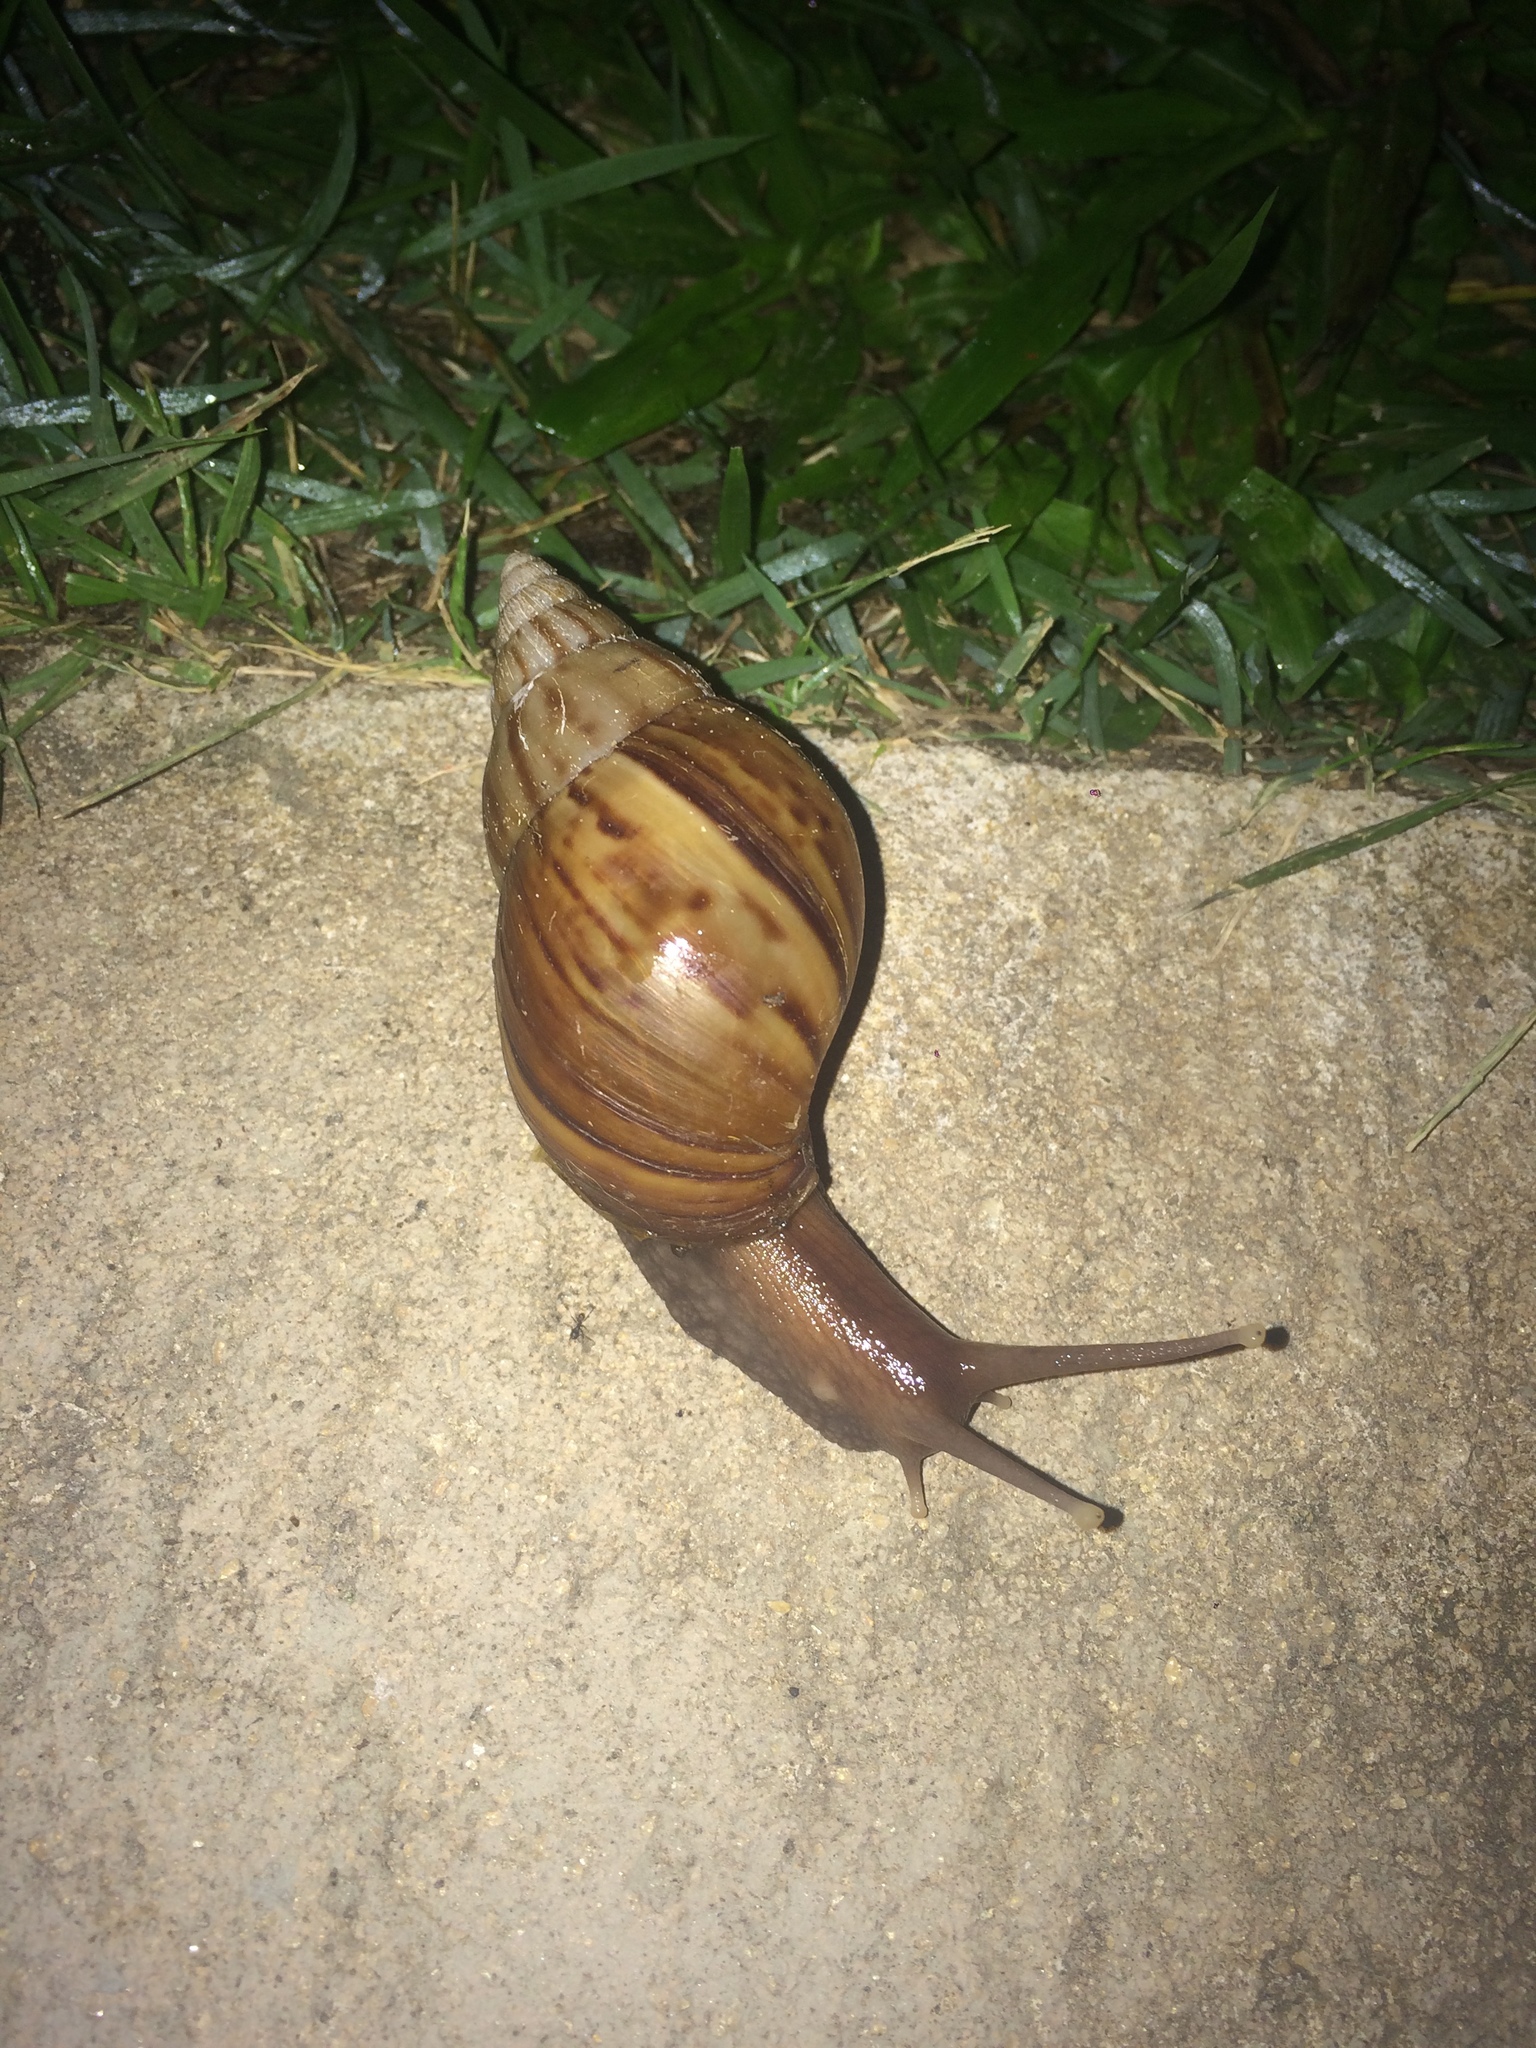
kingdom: Animalia
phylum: Mollusca
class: Gastropoda
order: Stylommatophora
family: Achatinidae
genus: Lissachatina
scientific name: Lissachatina fulica
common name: Giant african snail
